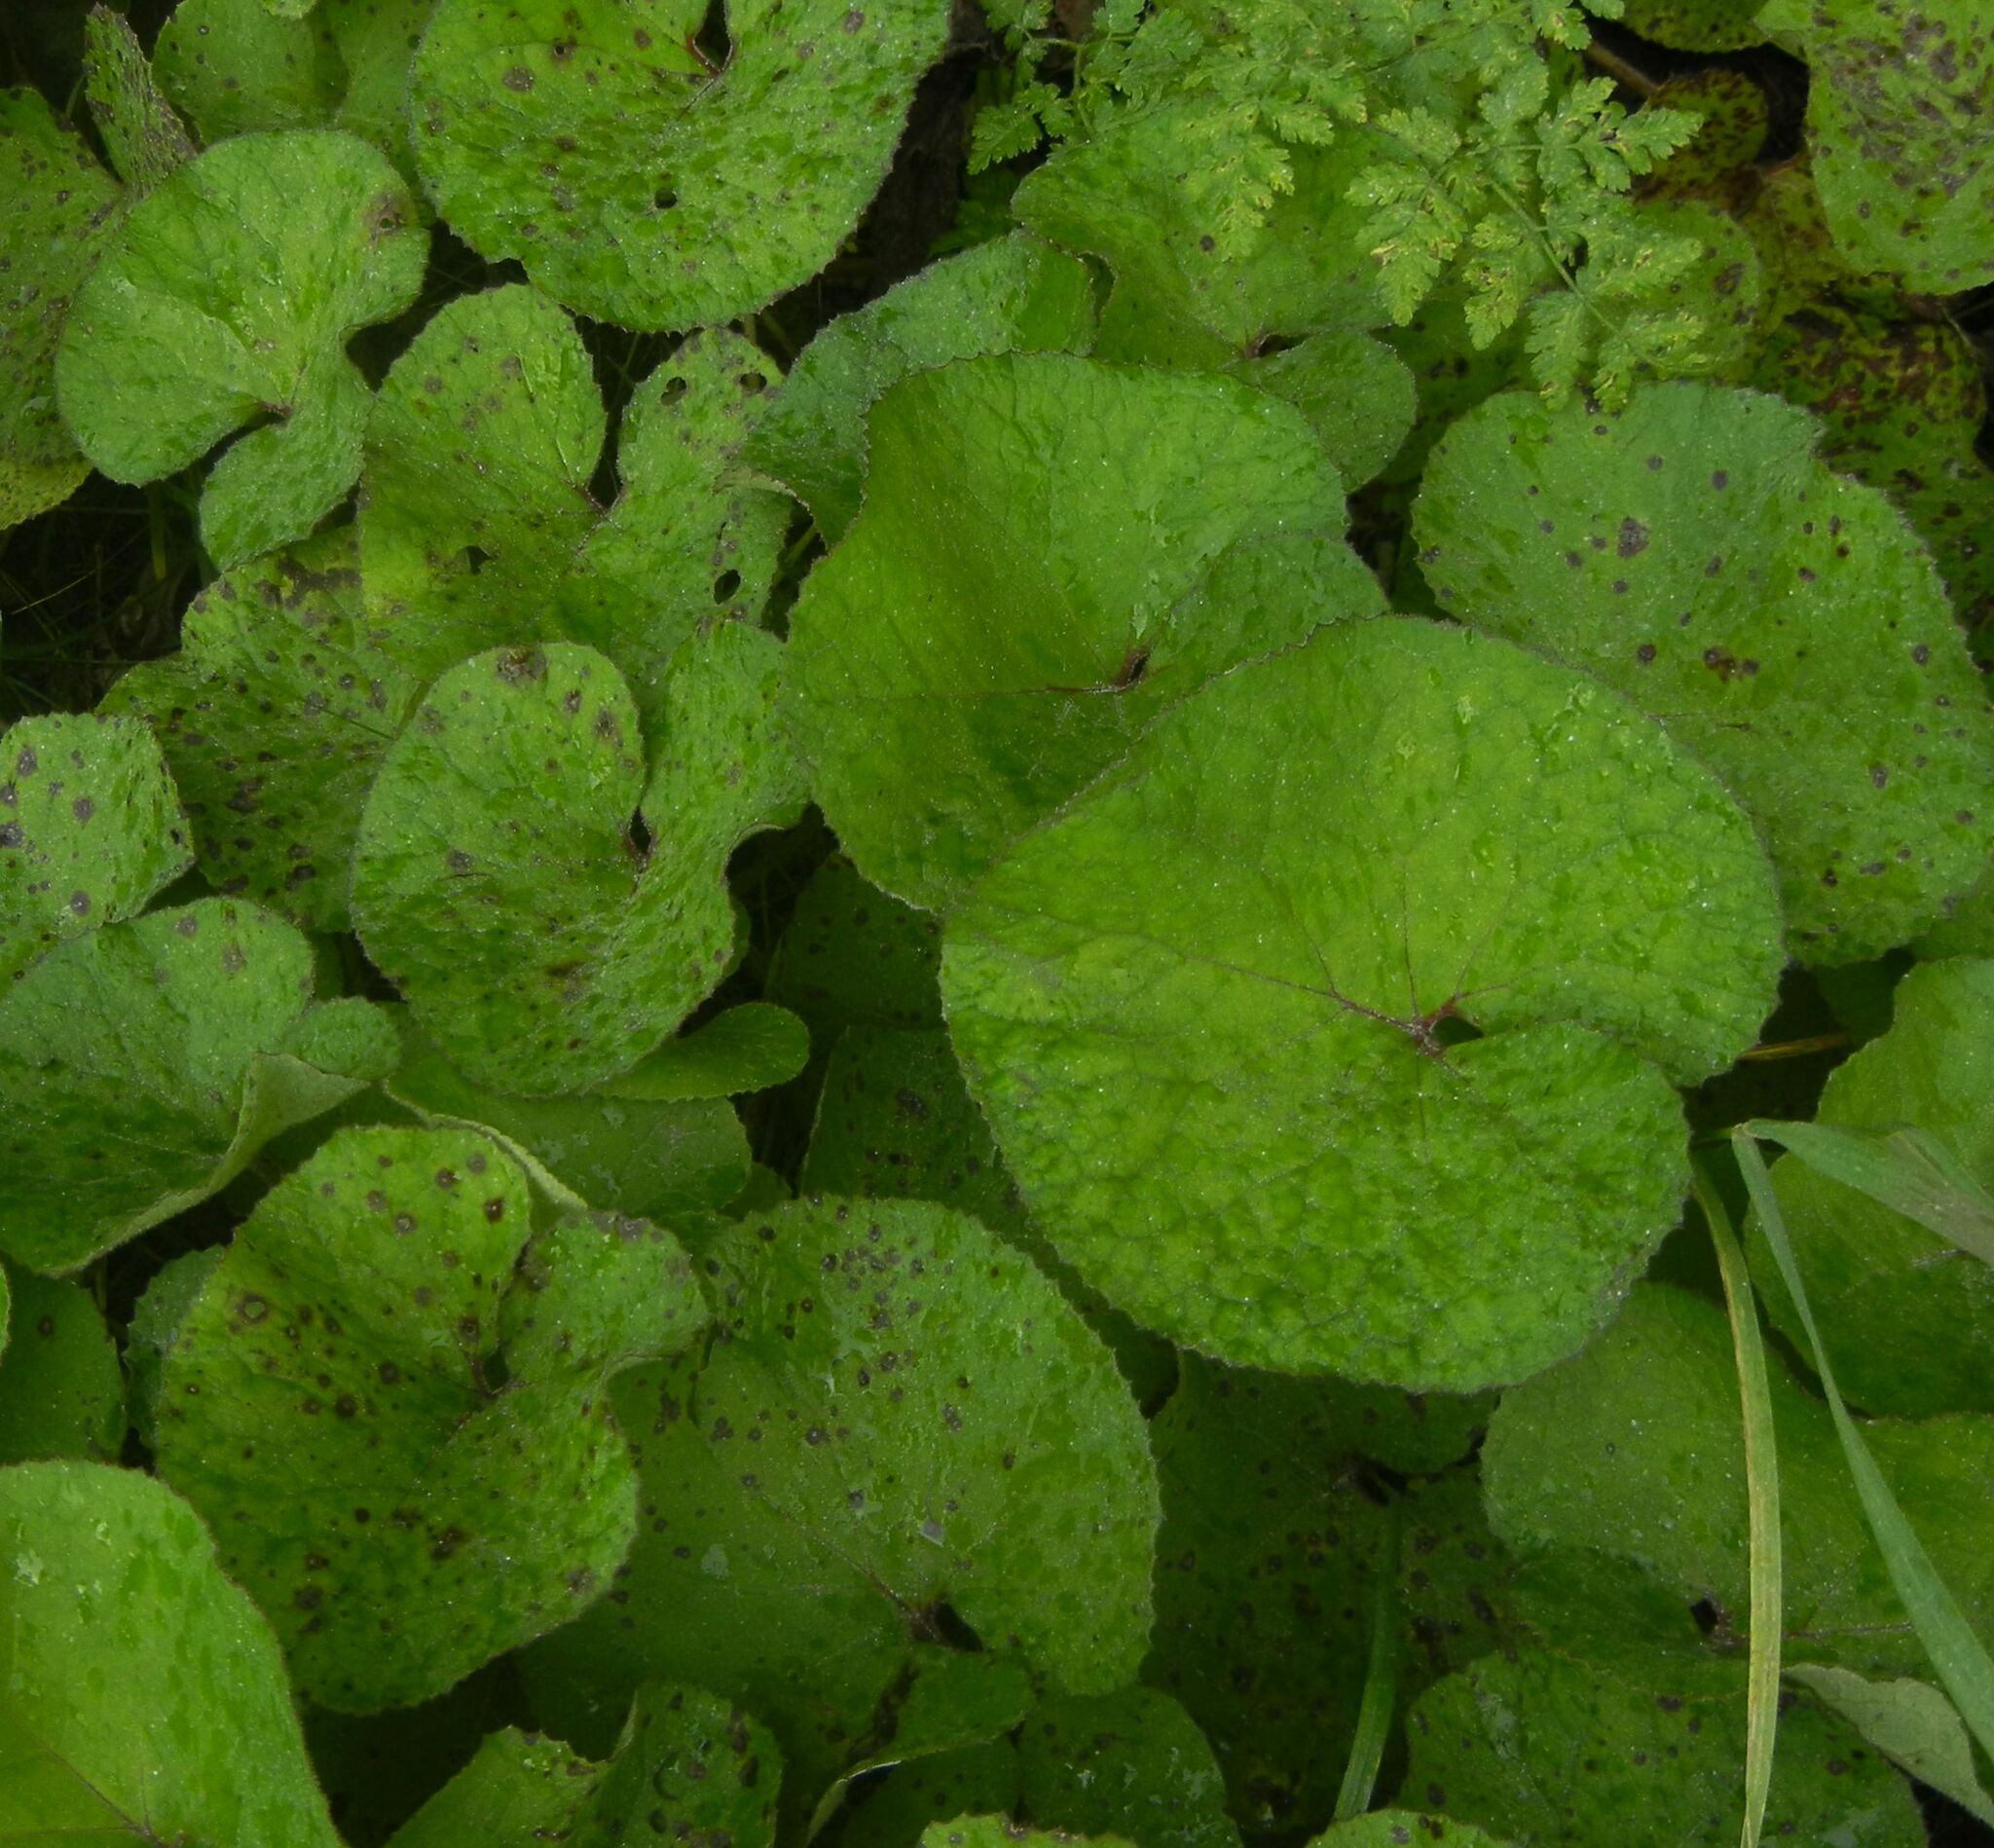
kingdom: Plantae
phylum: Tracheophyta
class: Magnoliopsida
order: Asterales
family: Asteraceae
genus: Petasites
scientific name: Petasites pyrenaicus
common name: Winter heliotrope
